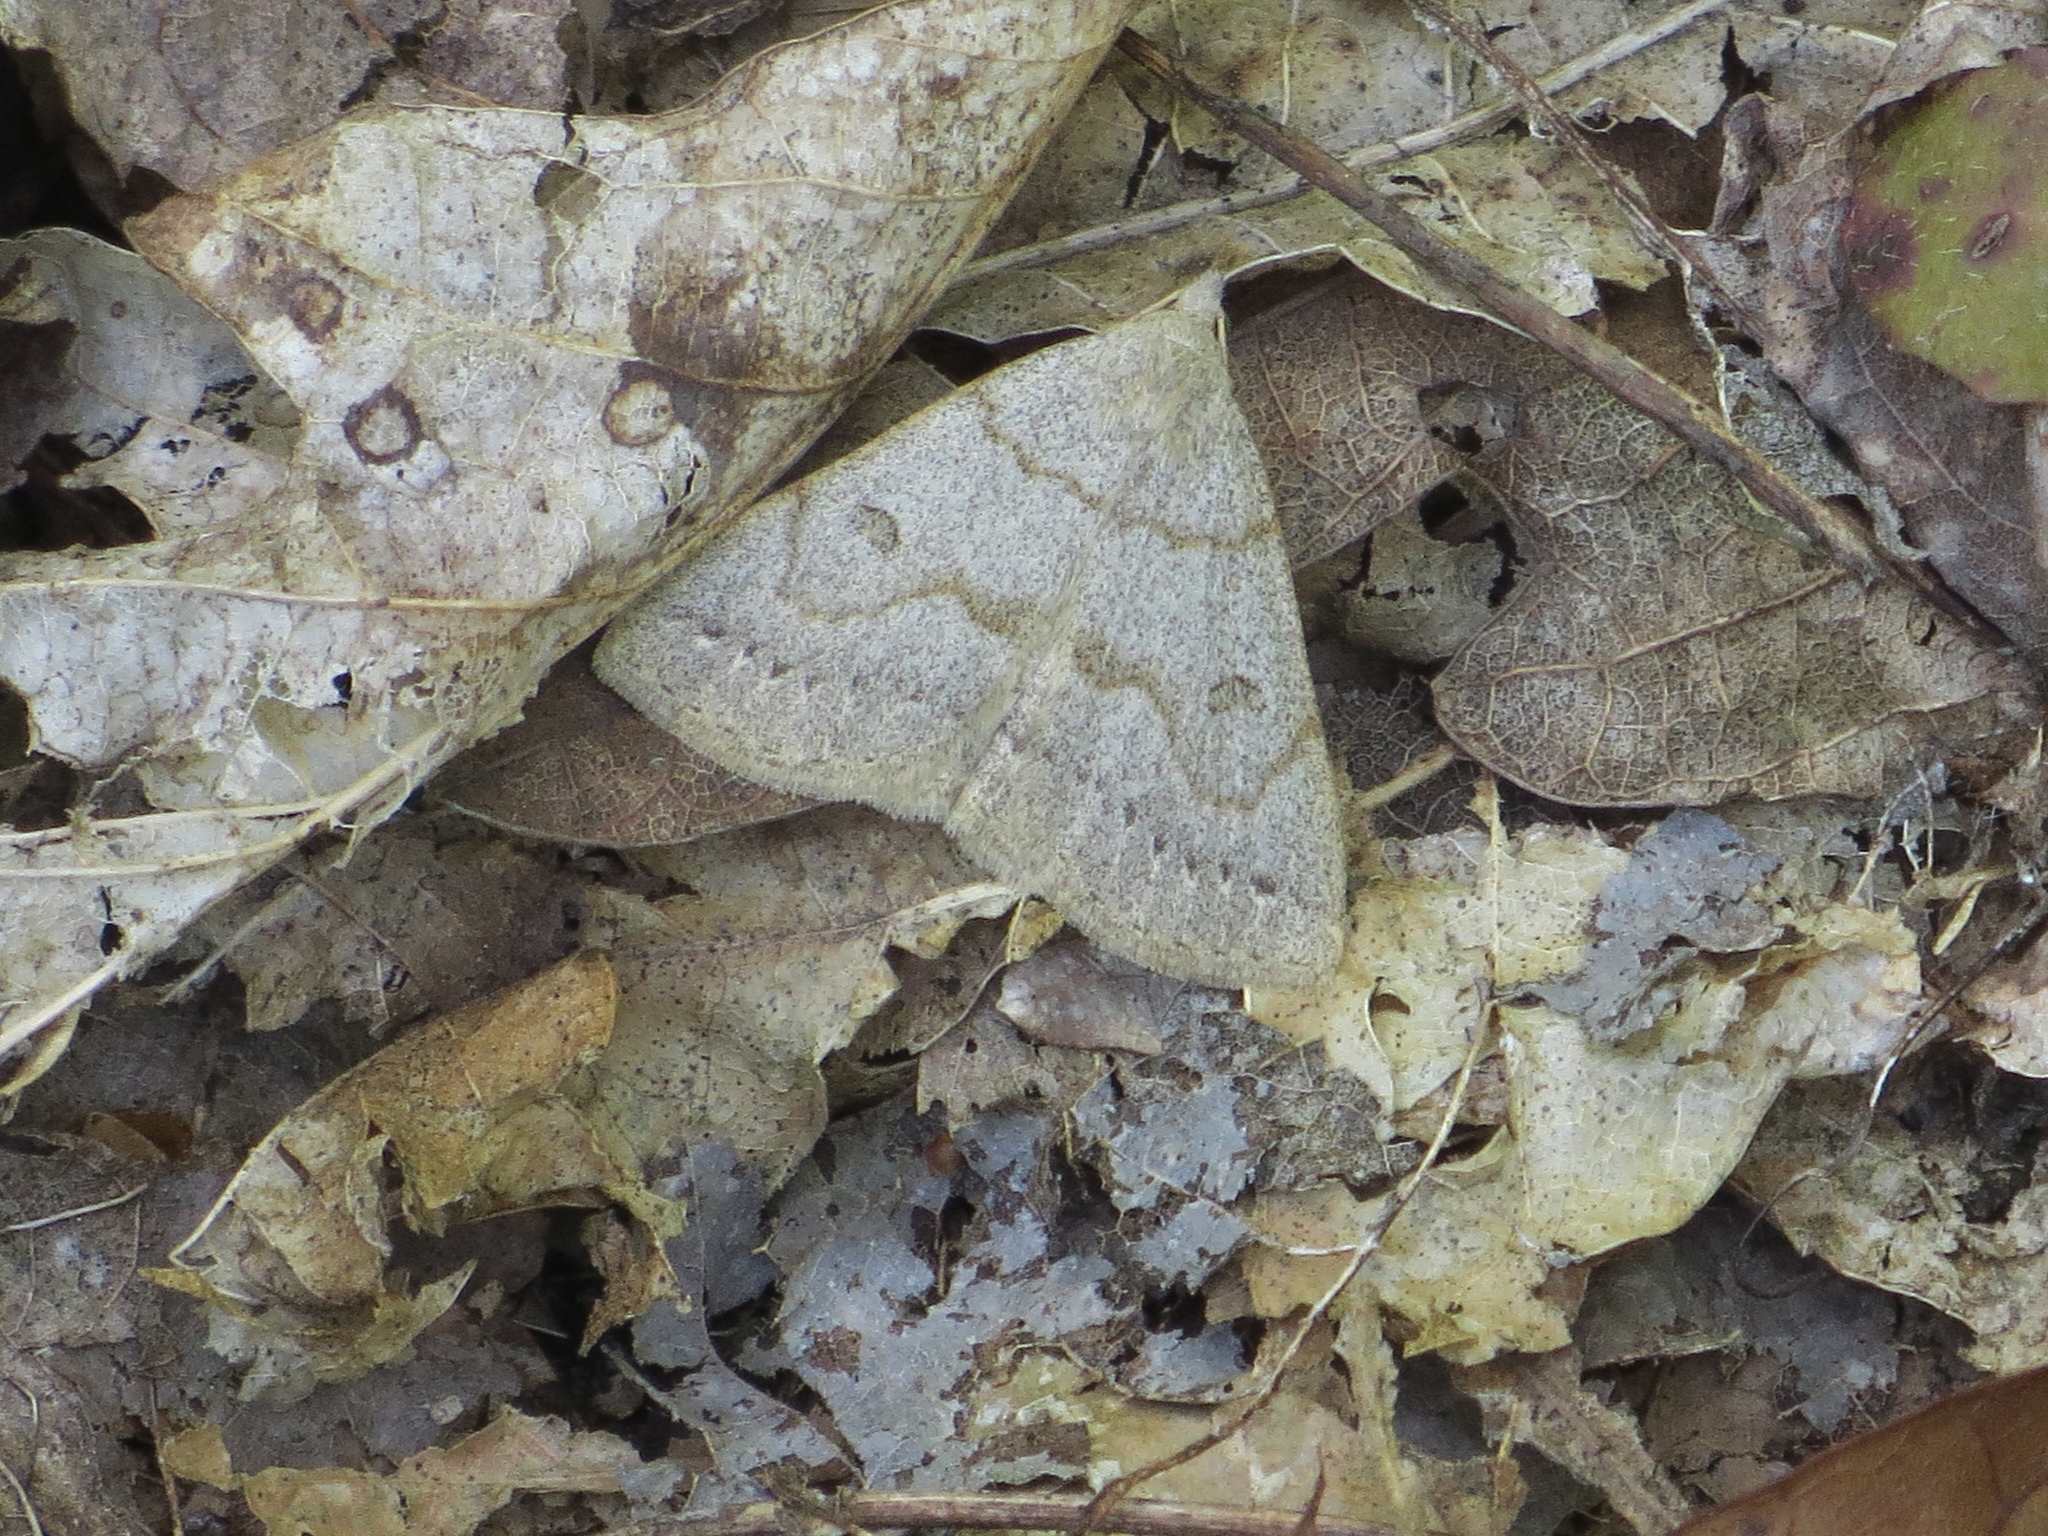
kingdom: Animalia
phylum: Arthropoda
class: Insecta
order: Lepidoptera
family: Erebidae
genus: Macrochilo
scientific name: Macrochilo morbidalis
